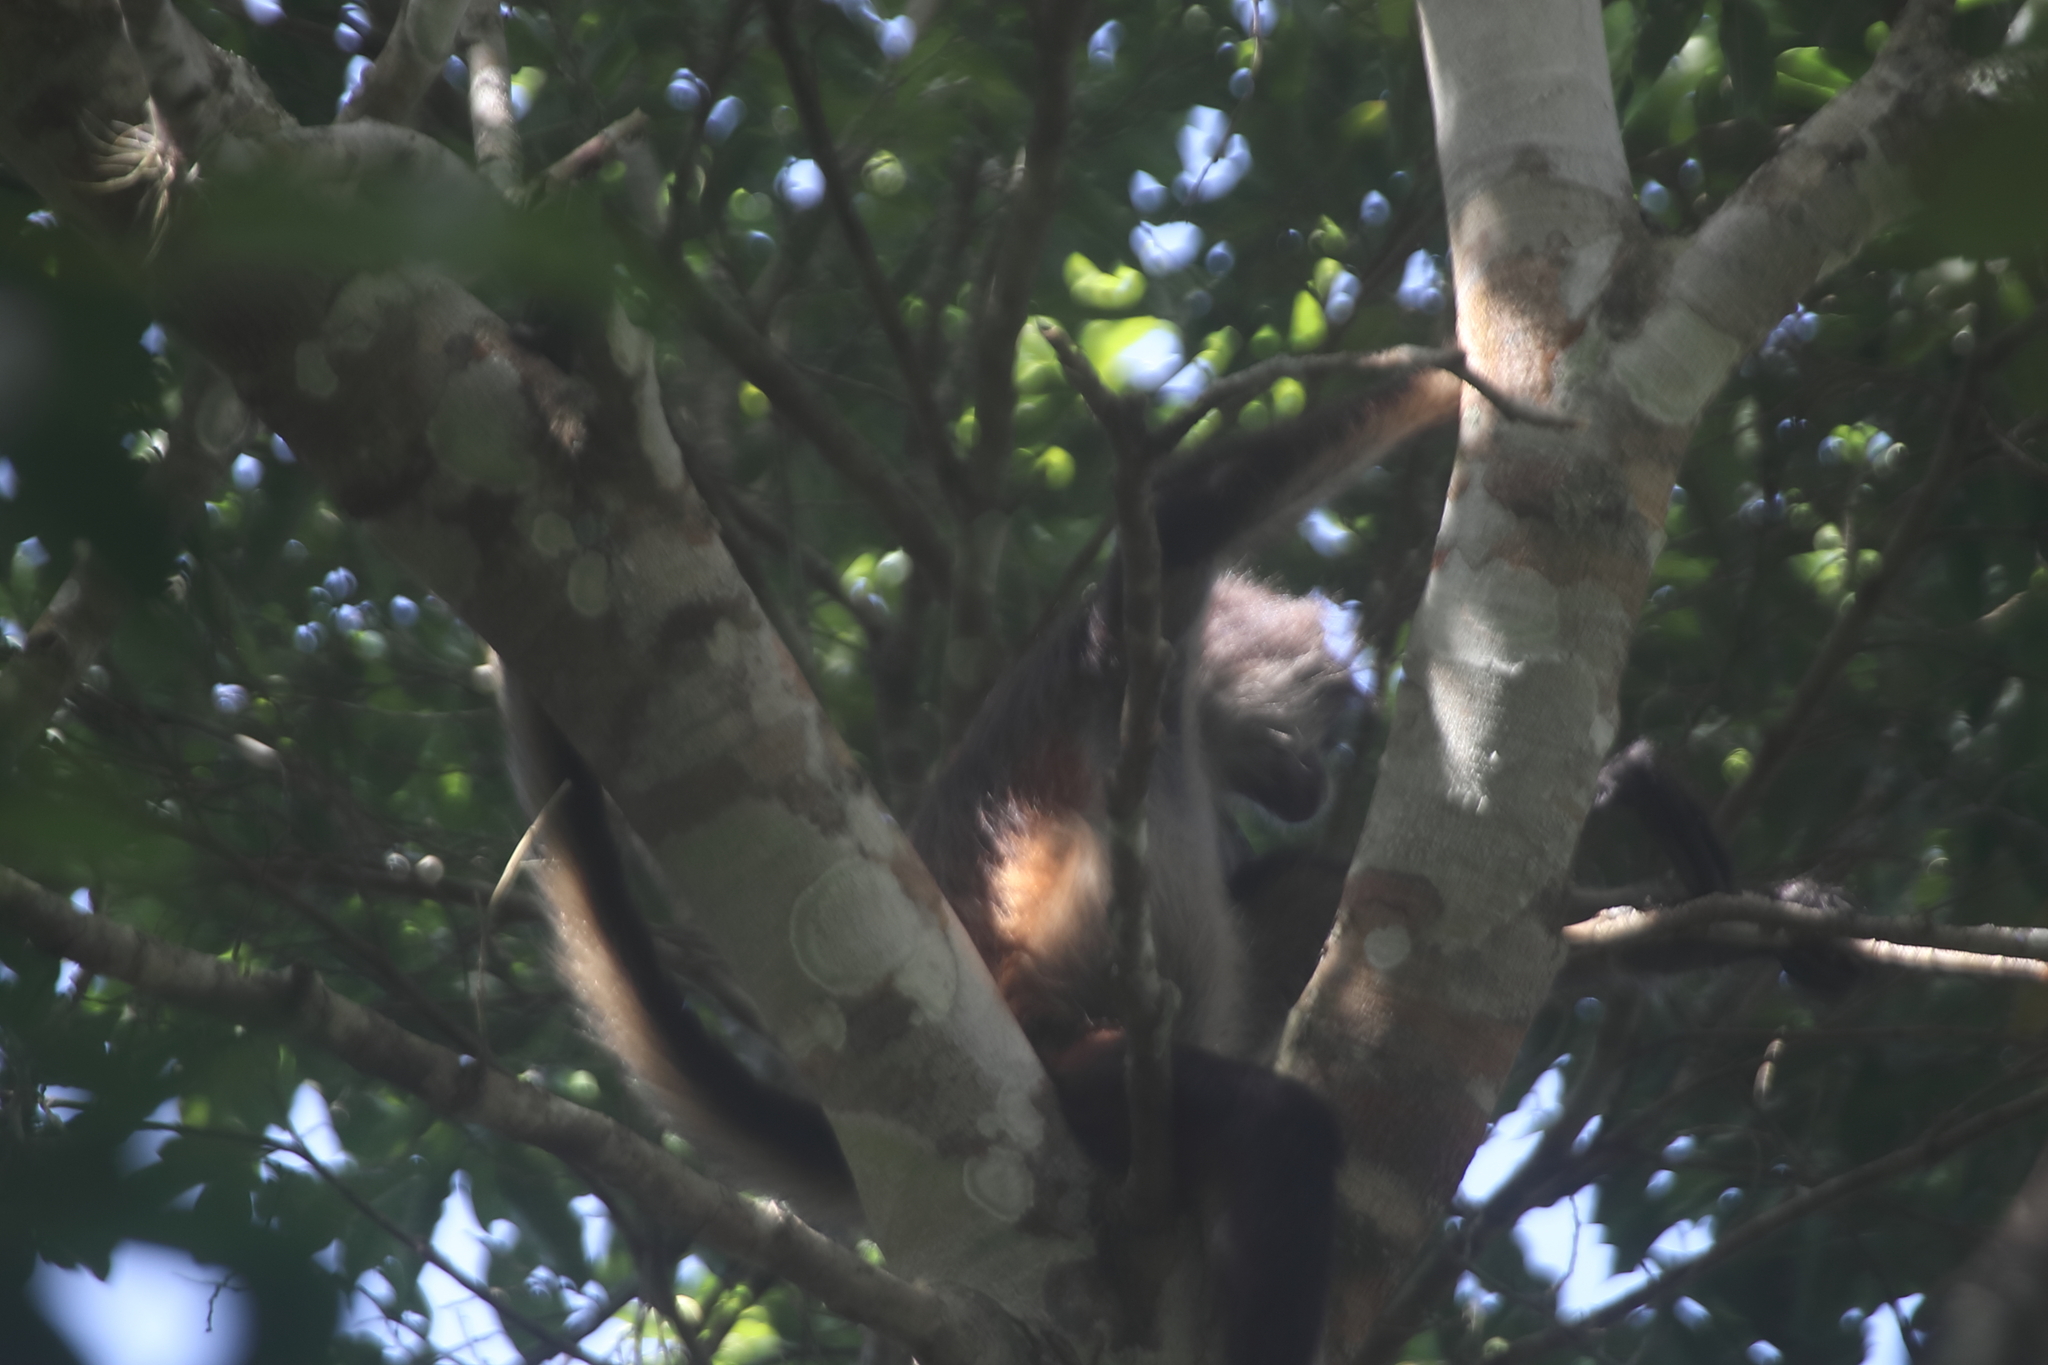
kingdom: Animalia
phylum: Chordata
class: Mammalia
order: Primates
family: Atelidae
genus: Ateles
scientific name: Ateles geoffroyi
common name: Black-handed spider monkey
